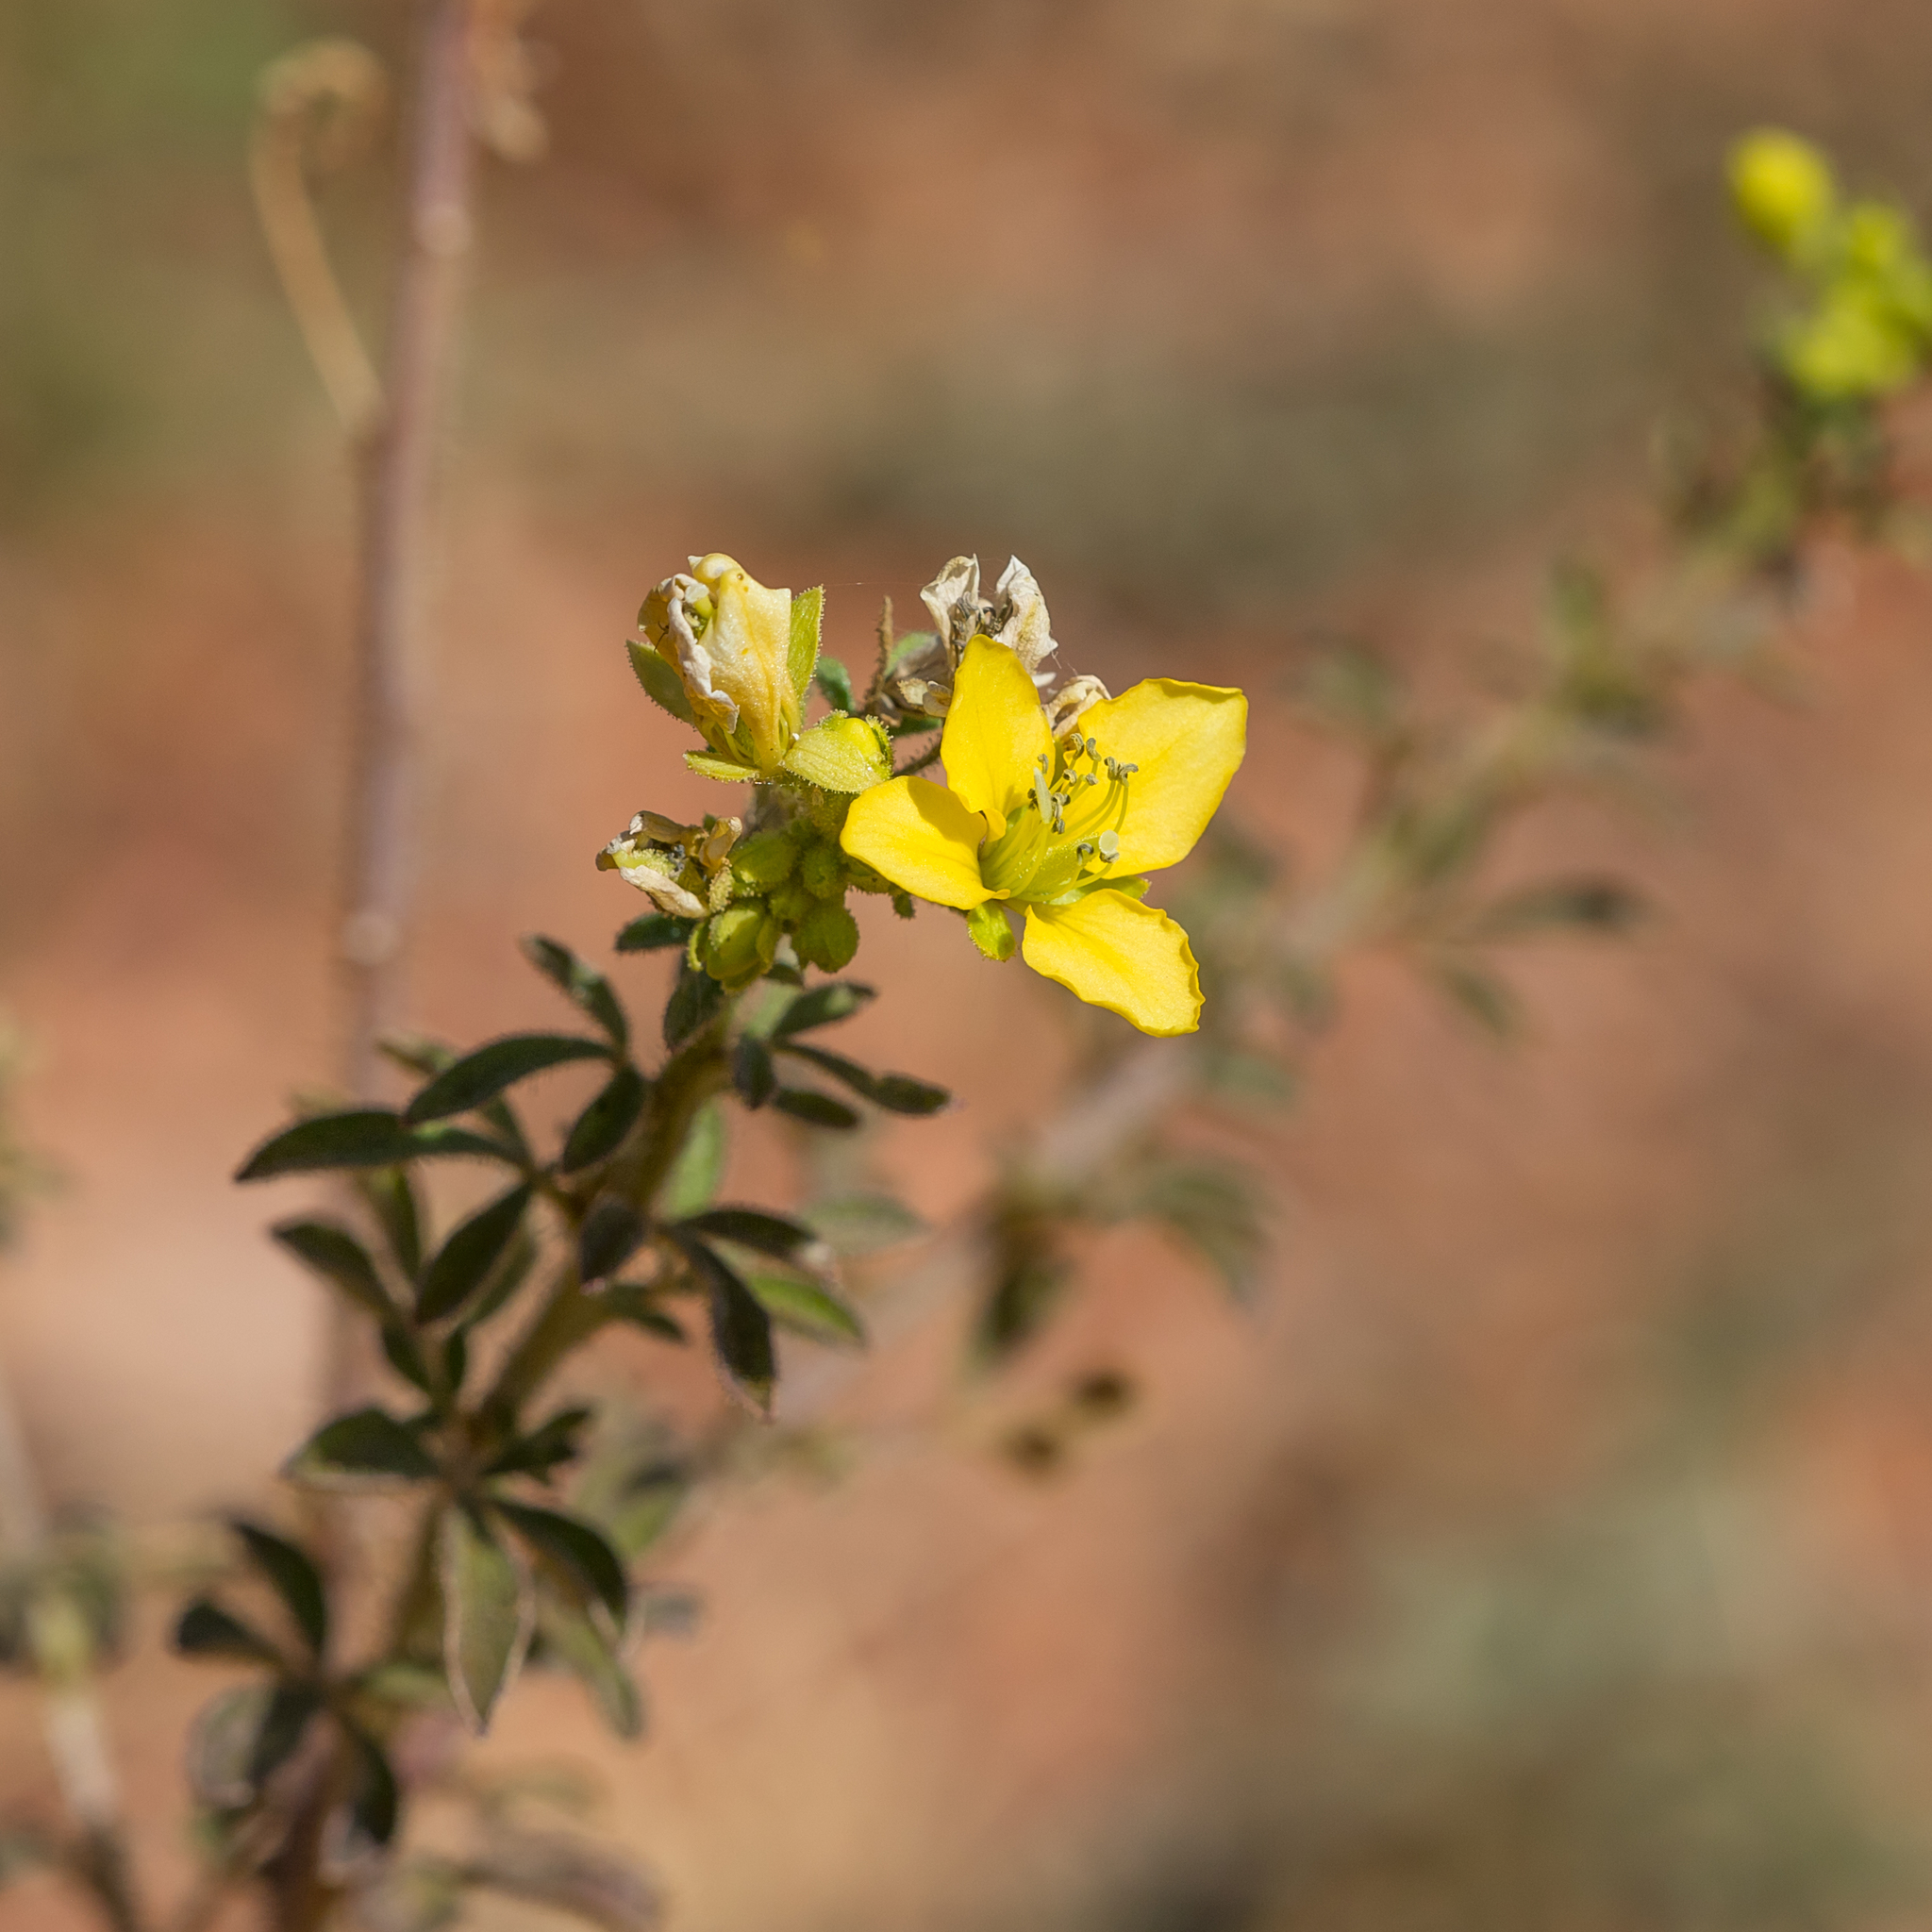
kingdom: Plantae
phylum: Tracheophyta
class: Magnoliopsida
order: Brassicales
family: Cleomaceae
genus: Arivela
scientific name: Arivela viscosa
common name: Asian spiderflower
